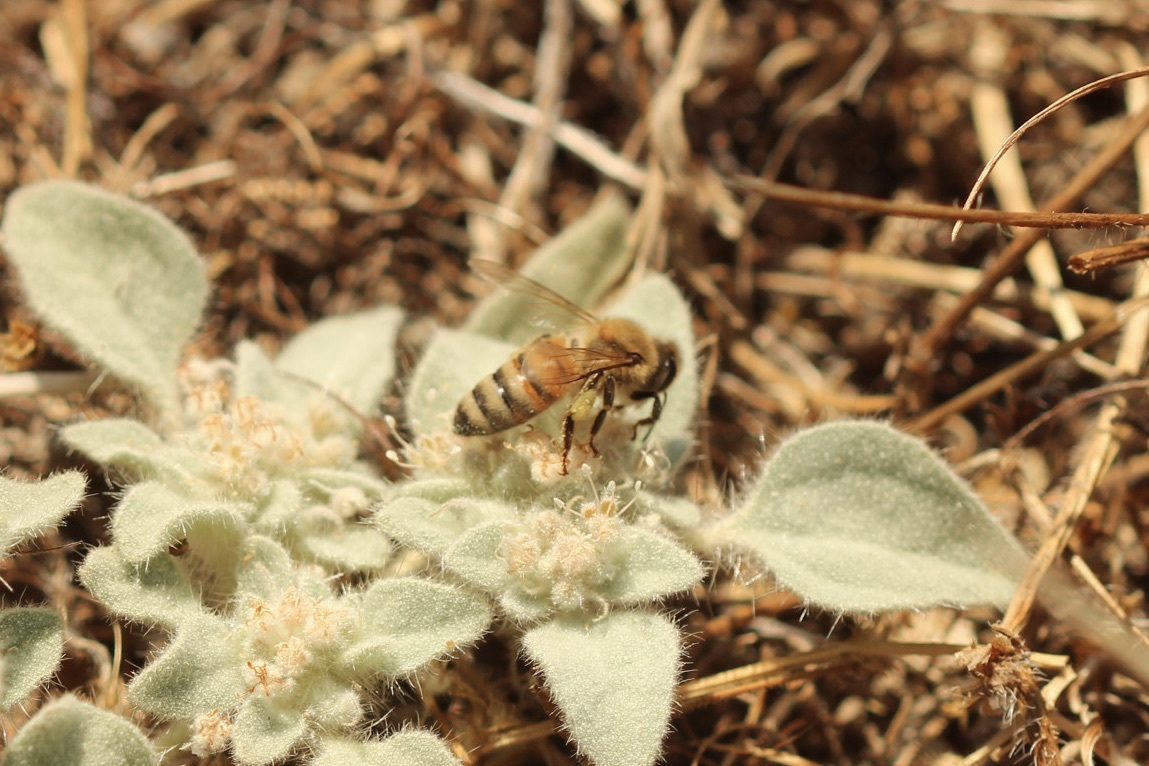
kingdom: Animalia
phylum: Arthropoda
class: Insecta
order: Hymenoptera
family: Apidae
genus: Apis
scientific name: Apis mellifera
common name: Honey bee
